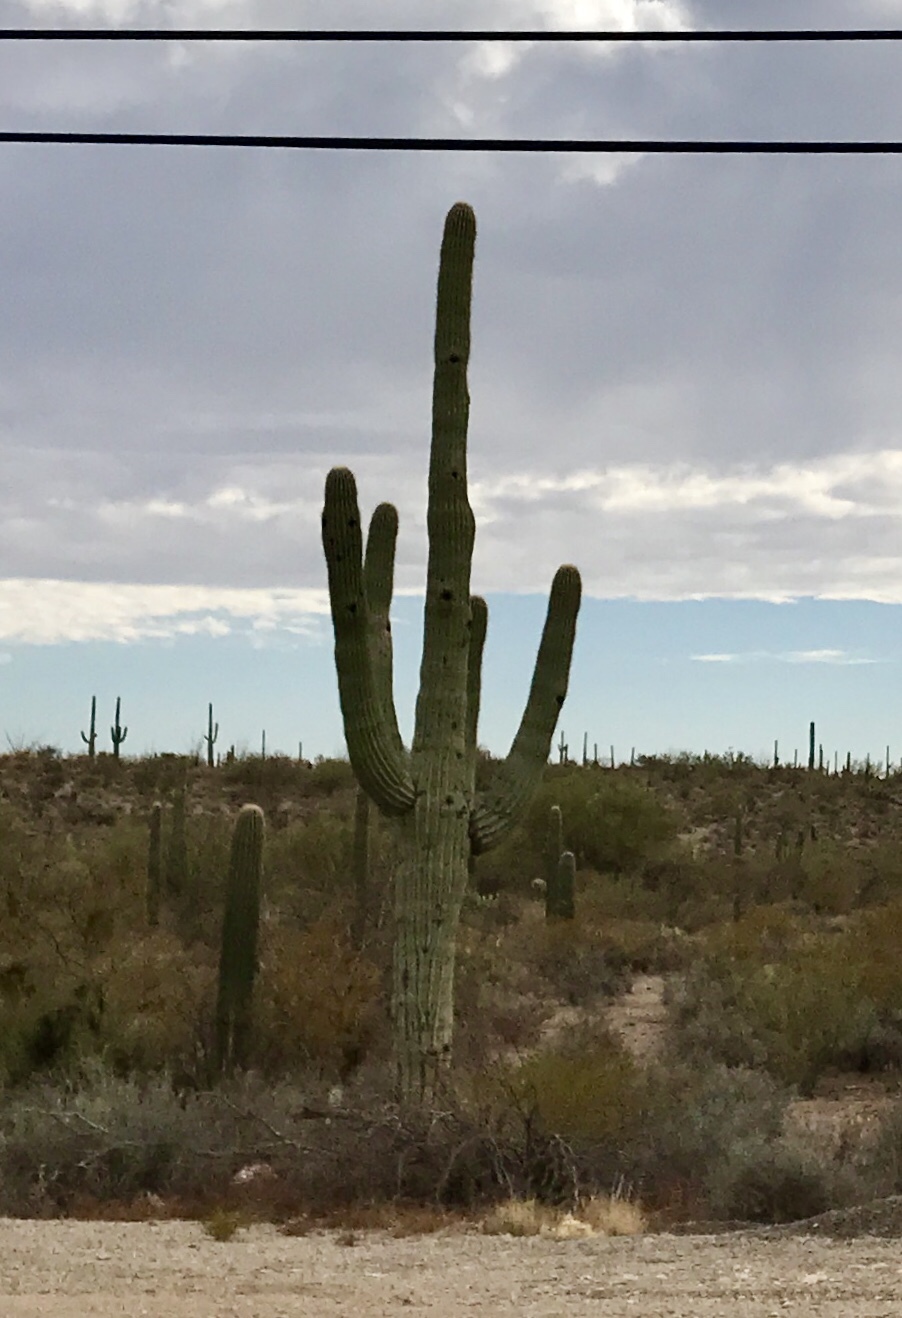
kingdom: Plantae
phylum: Tracheophyta
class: Magnoliopsida
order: Caryophyllales
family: Cactaceae
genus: Carnegiea
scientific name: Carnegiea gigantea
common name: Saguaro
